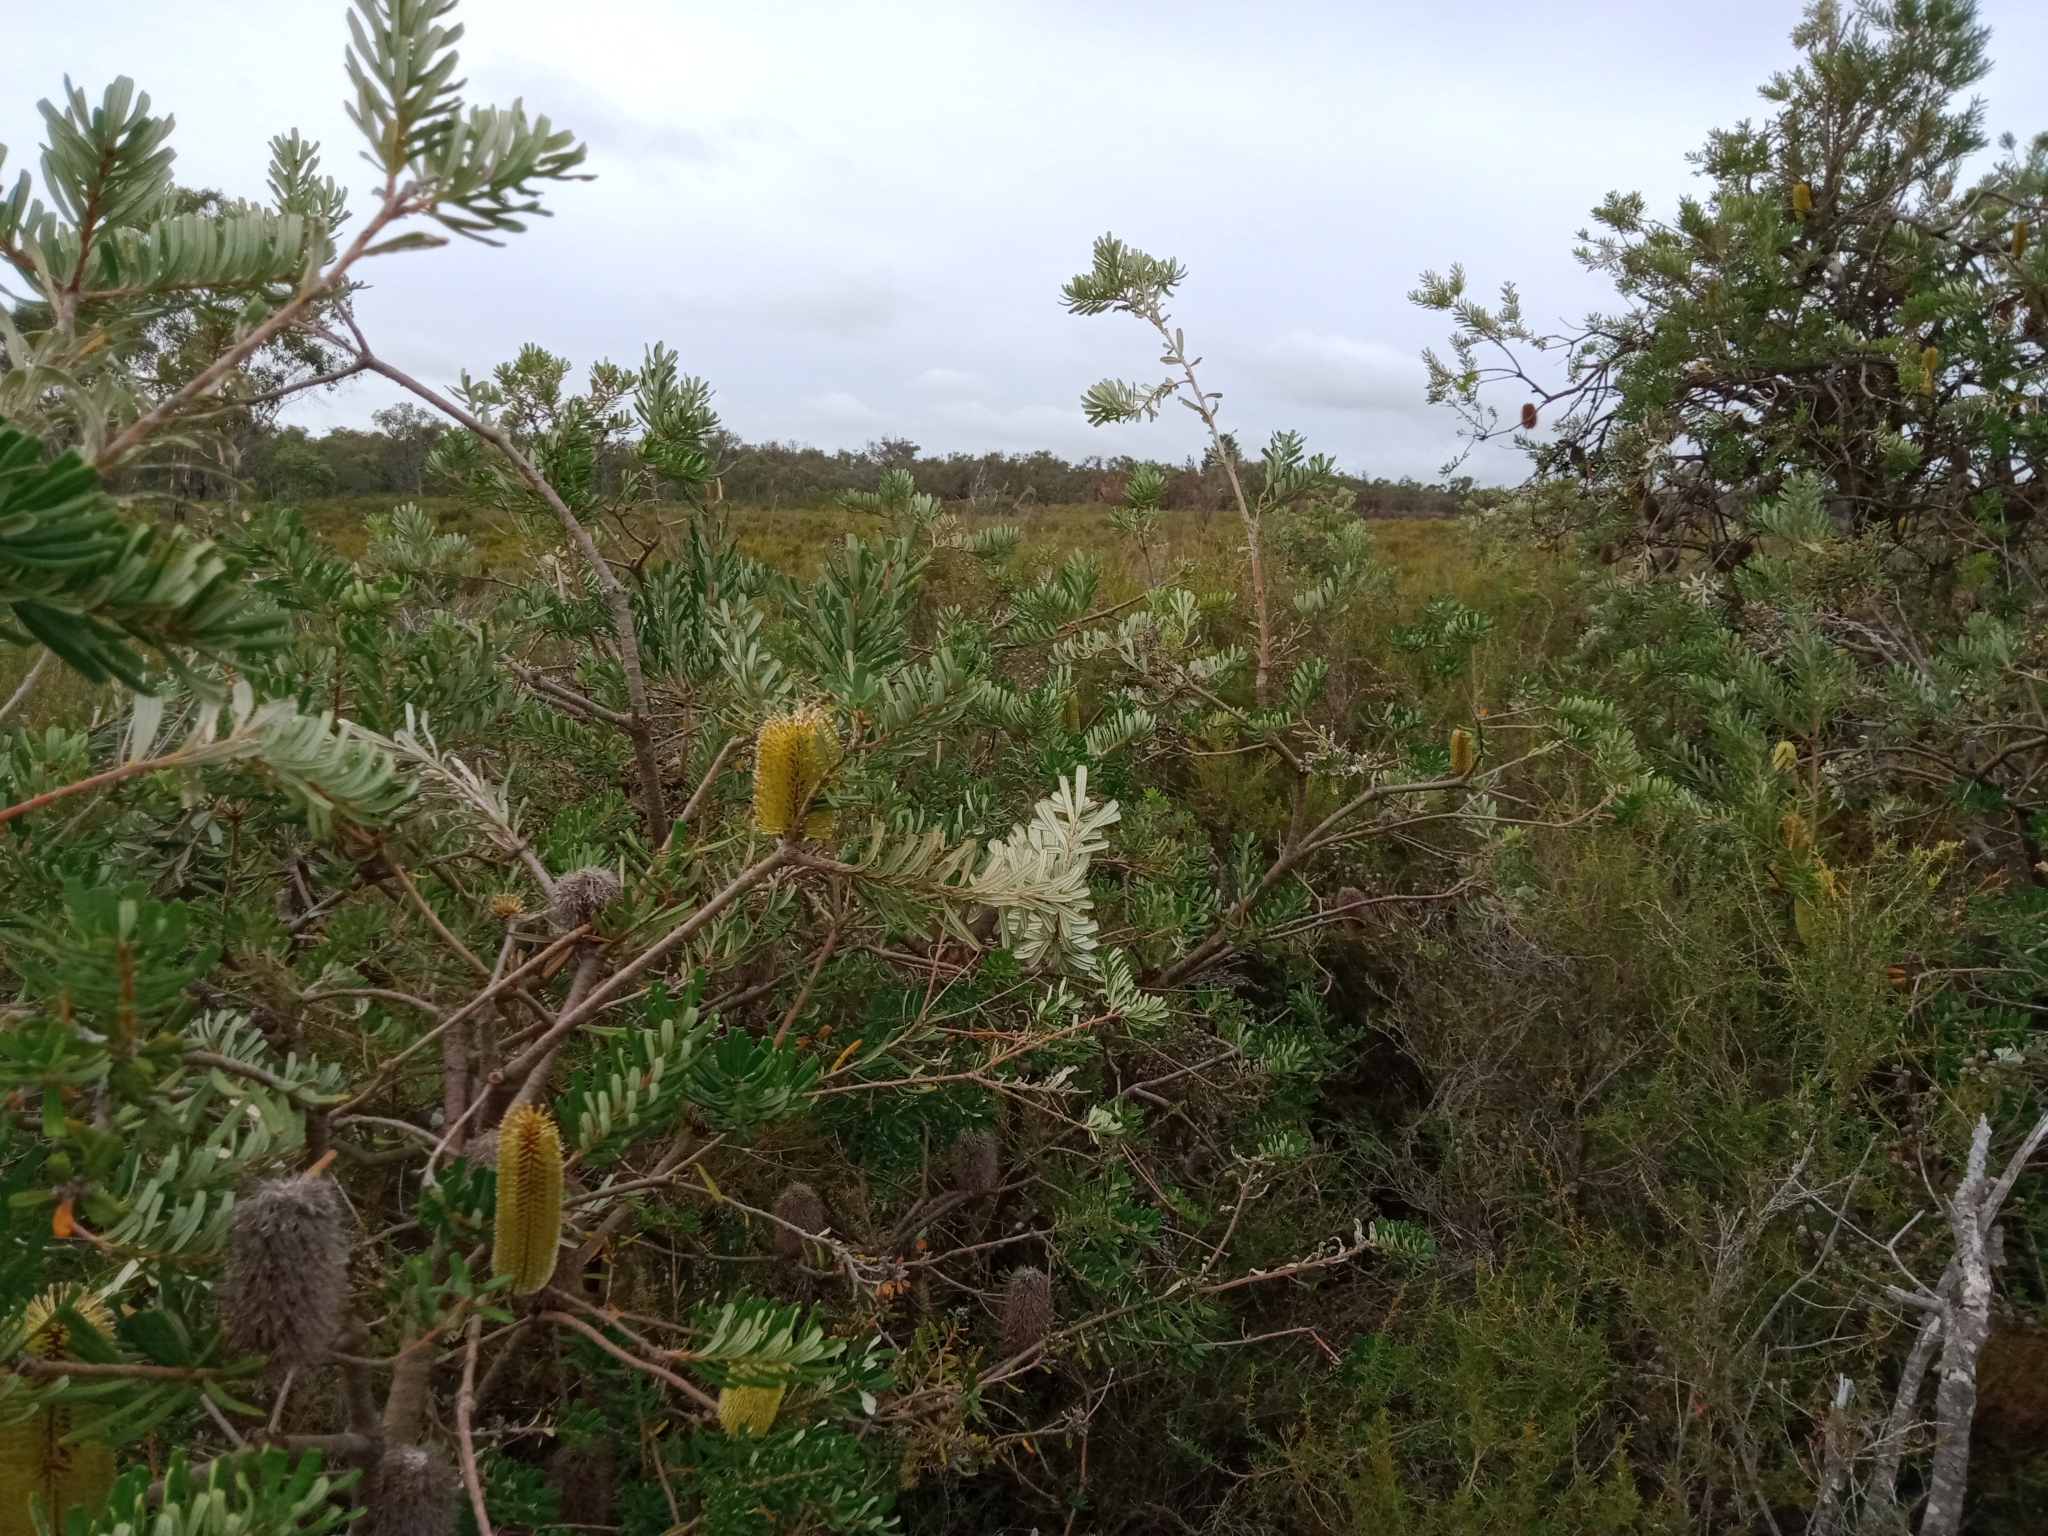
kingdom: Plantae
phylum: Tracheophyta
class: Magnoliopsida
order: Proteales
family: Proteaceae
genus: Banksia
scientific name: Banksia marginata
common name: Silver banksia
